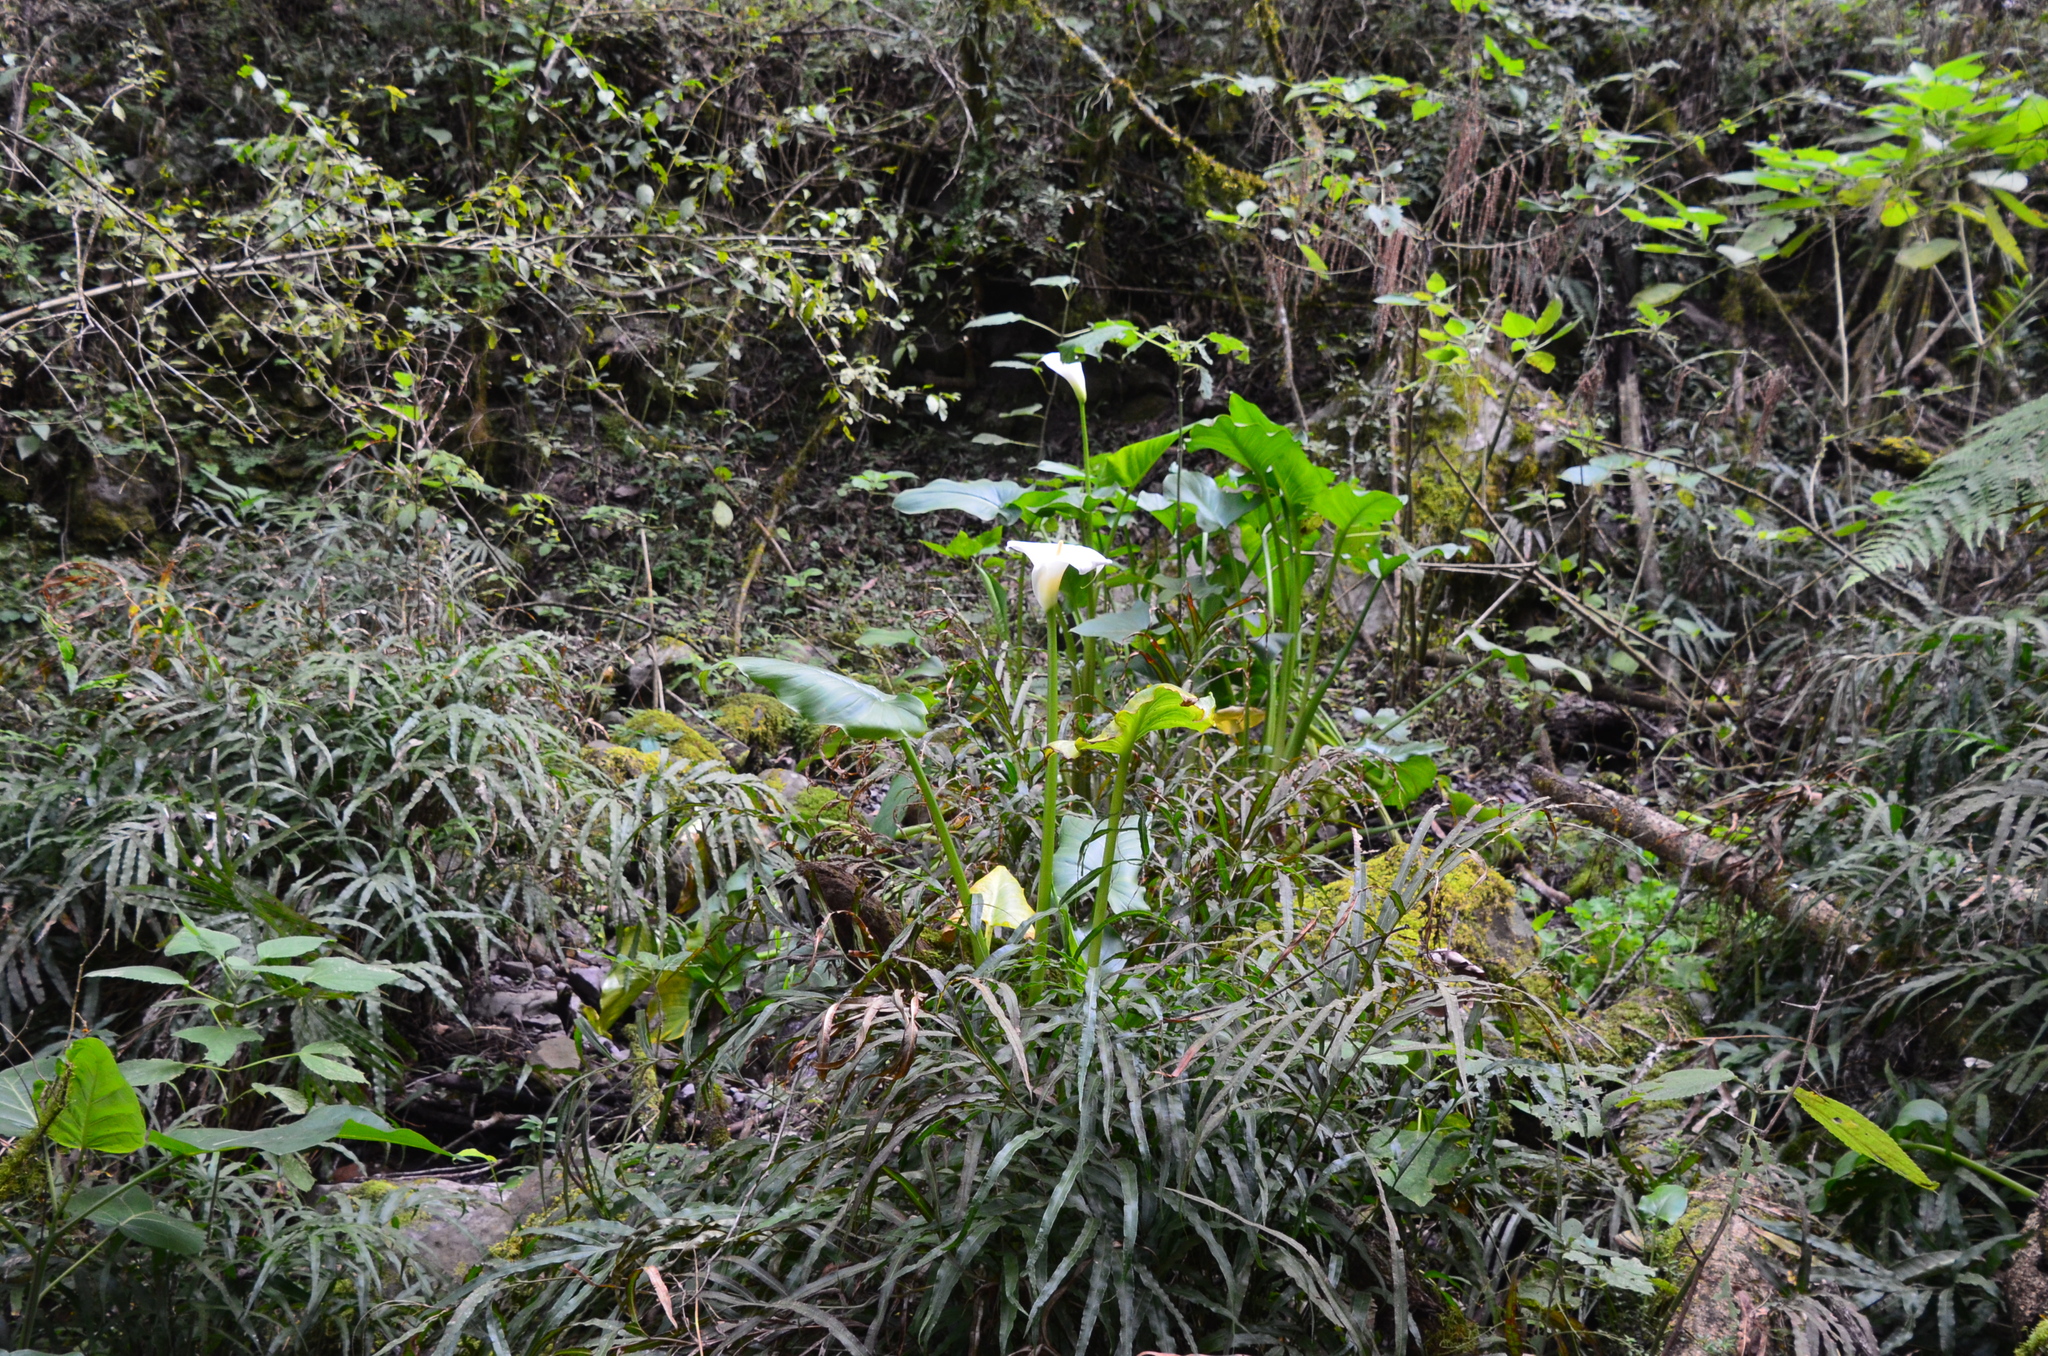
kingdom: Plantae
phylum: Tracheophyta
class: Liliopsida
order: Alismatales
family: Araceae
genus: Zantedeschia
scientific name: Zantedeschia aethiopica
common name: Altar-lily
